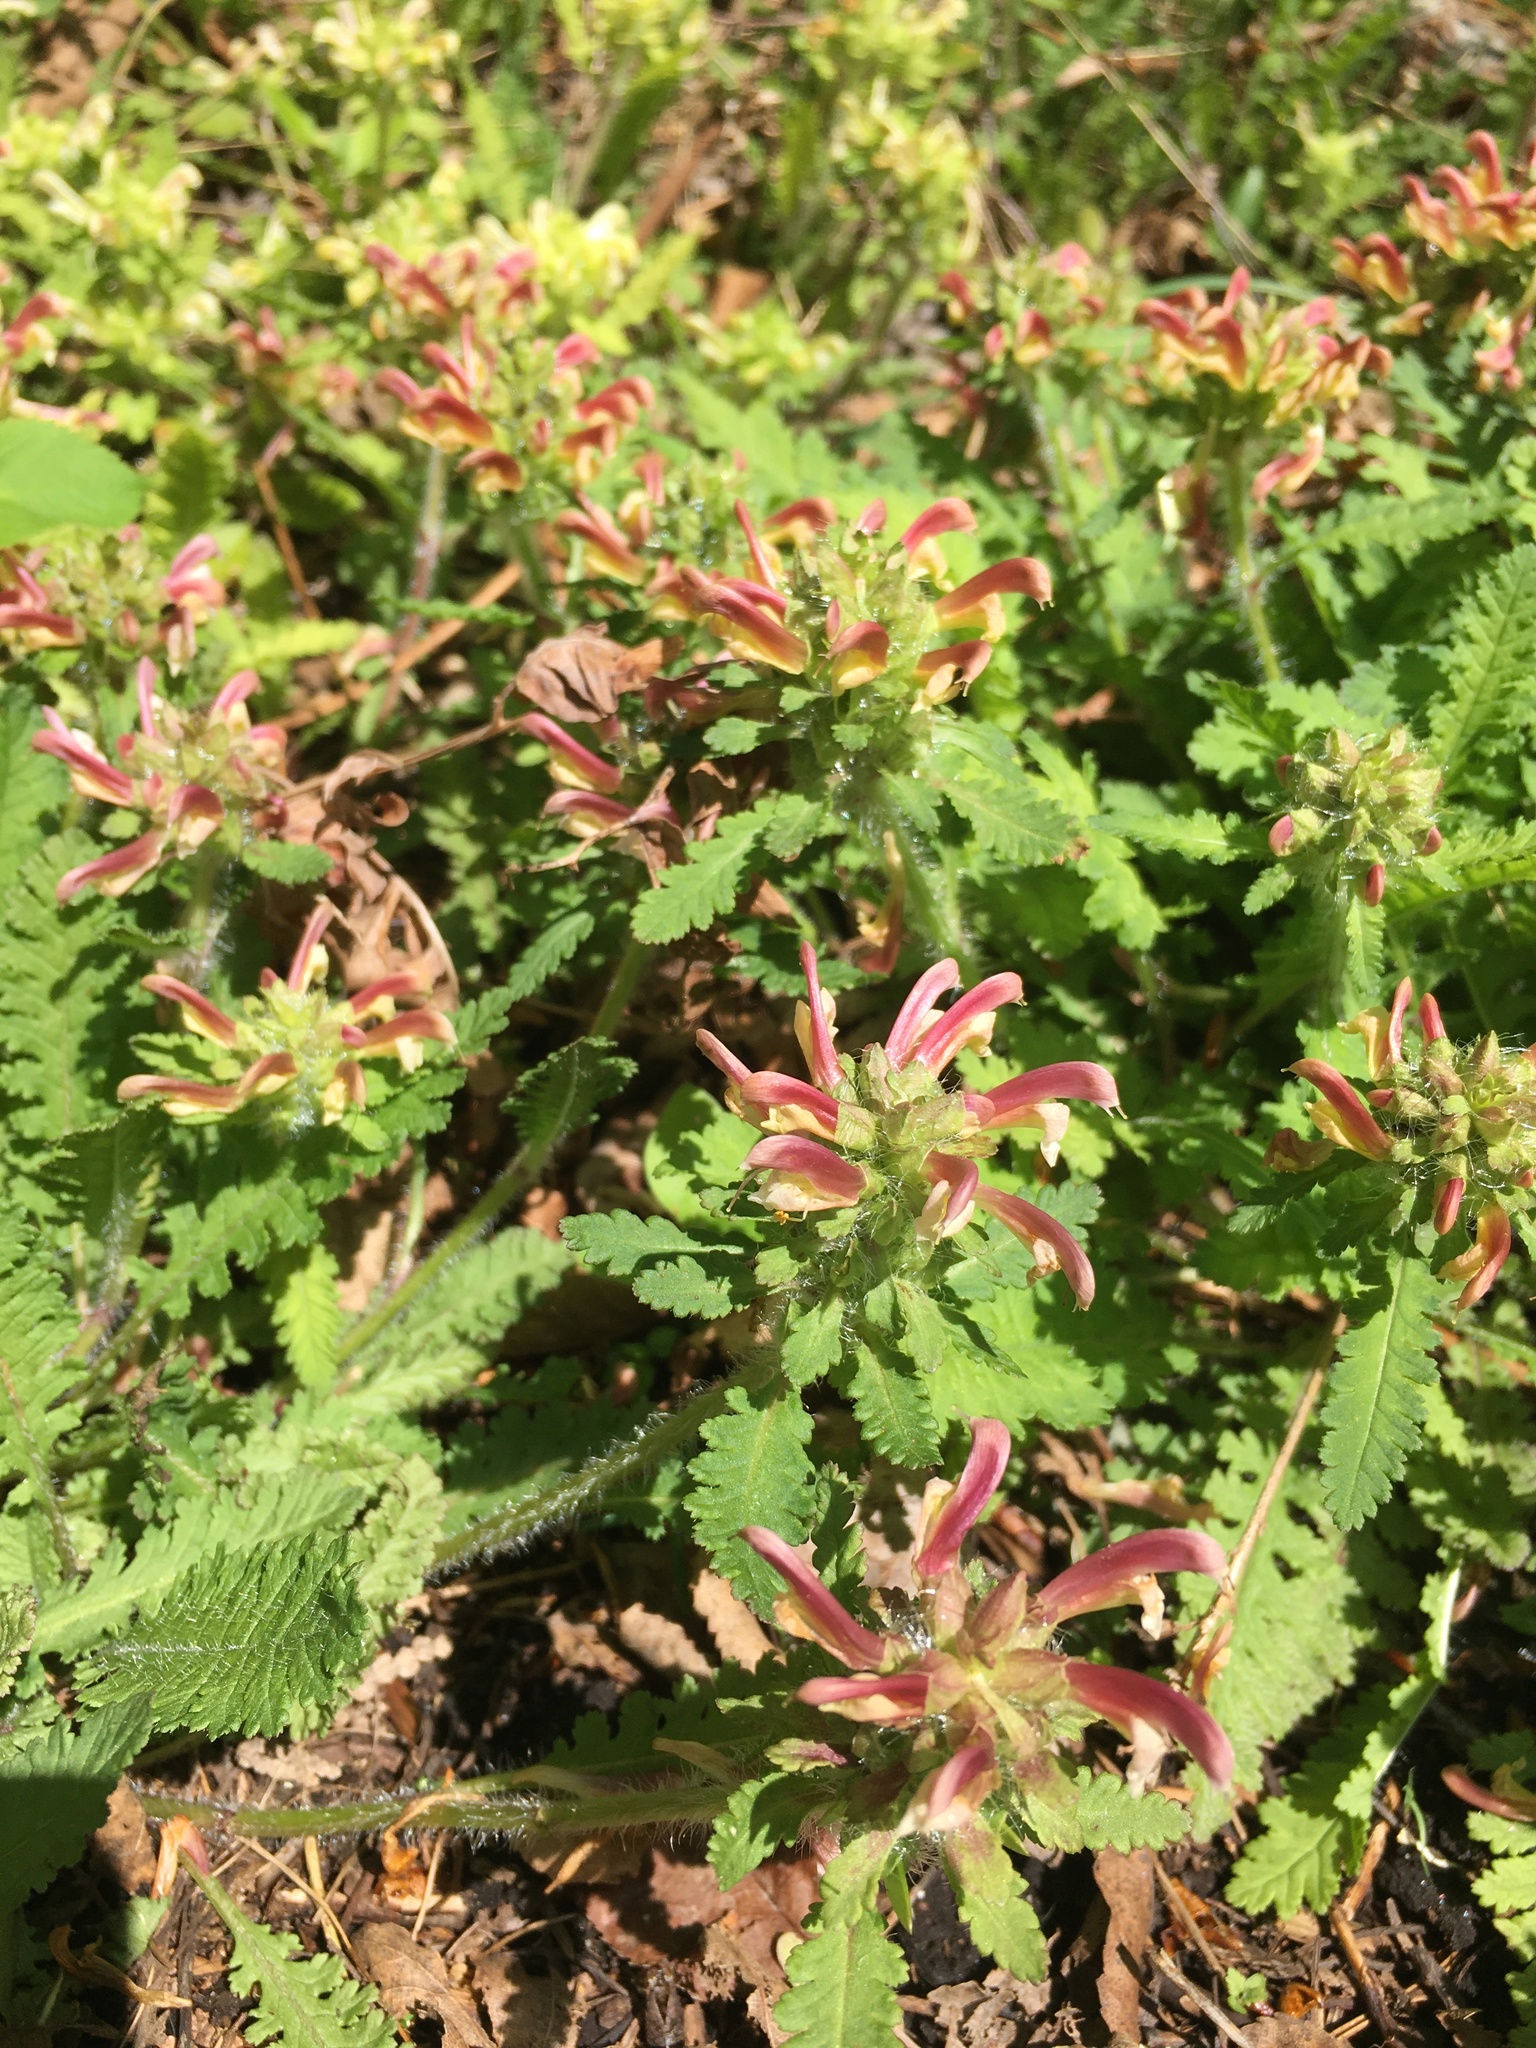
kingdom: Plantae
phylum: Tracheophyta
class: Magnoliopsida
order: Lamiales
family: Orobanchaceae
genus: Pedicularis
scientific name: Pedicularis canadensis
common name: Early lousewort
